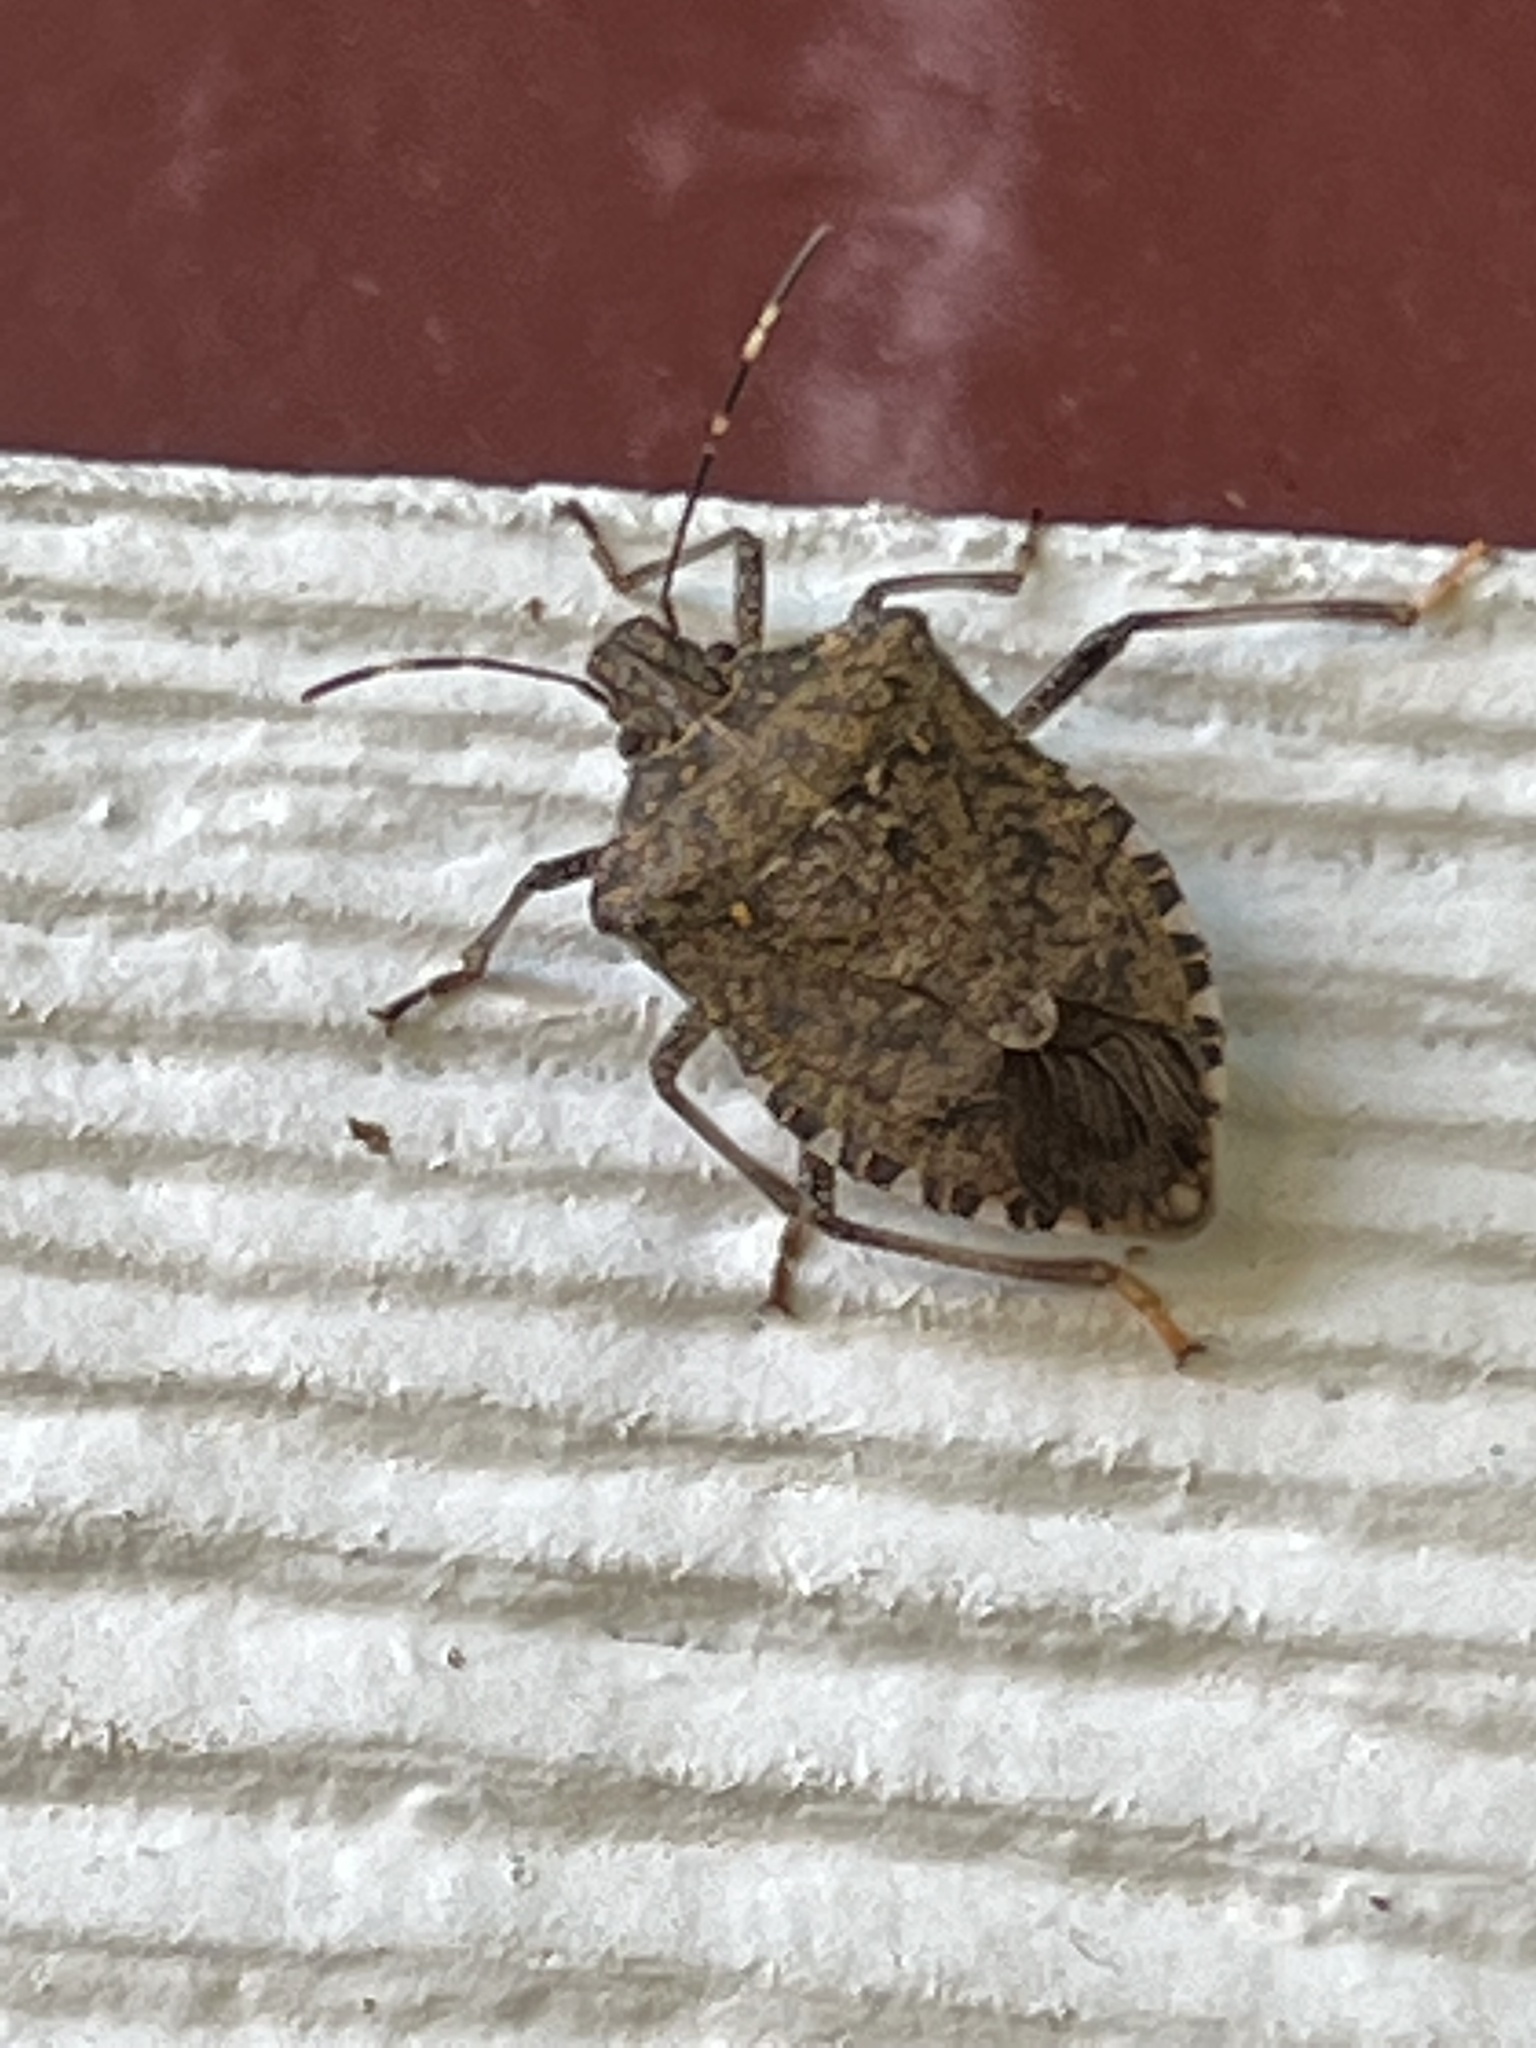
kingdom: Animalia
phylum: Arthropoda
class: Insecta
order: Hemiptera
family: Pentatomidae
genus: Halyomorpha
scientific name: Halyomorpha halys
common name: Brown marmorated stink bug
